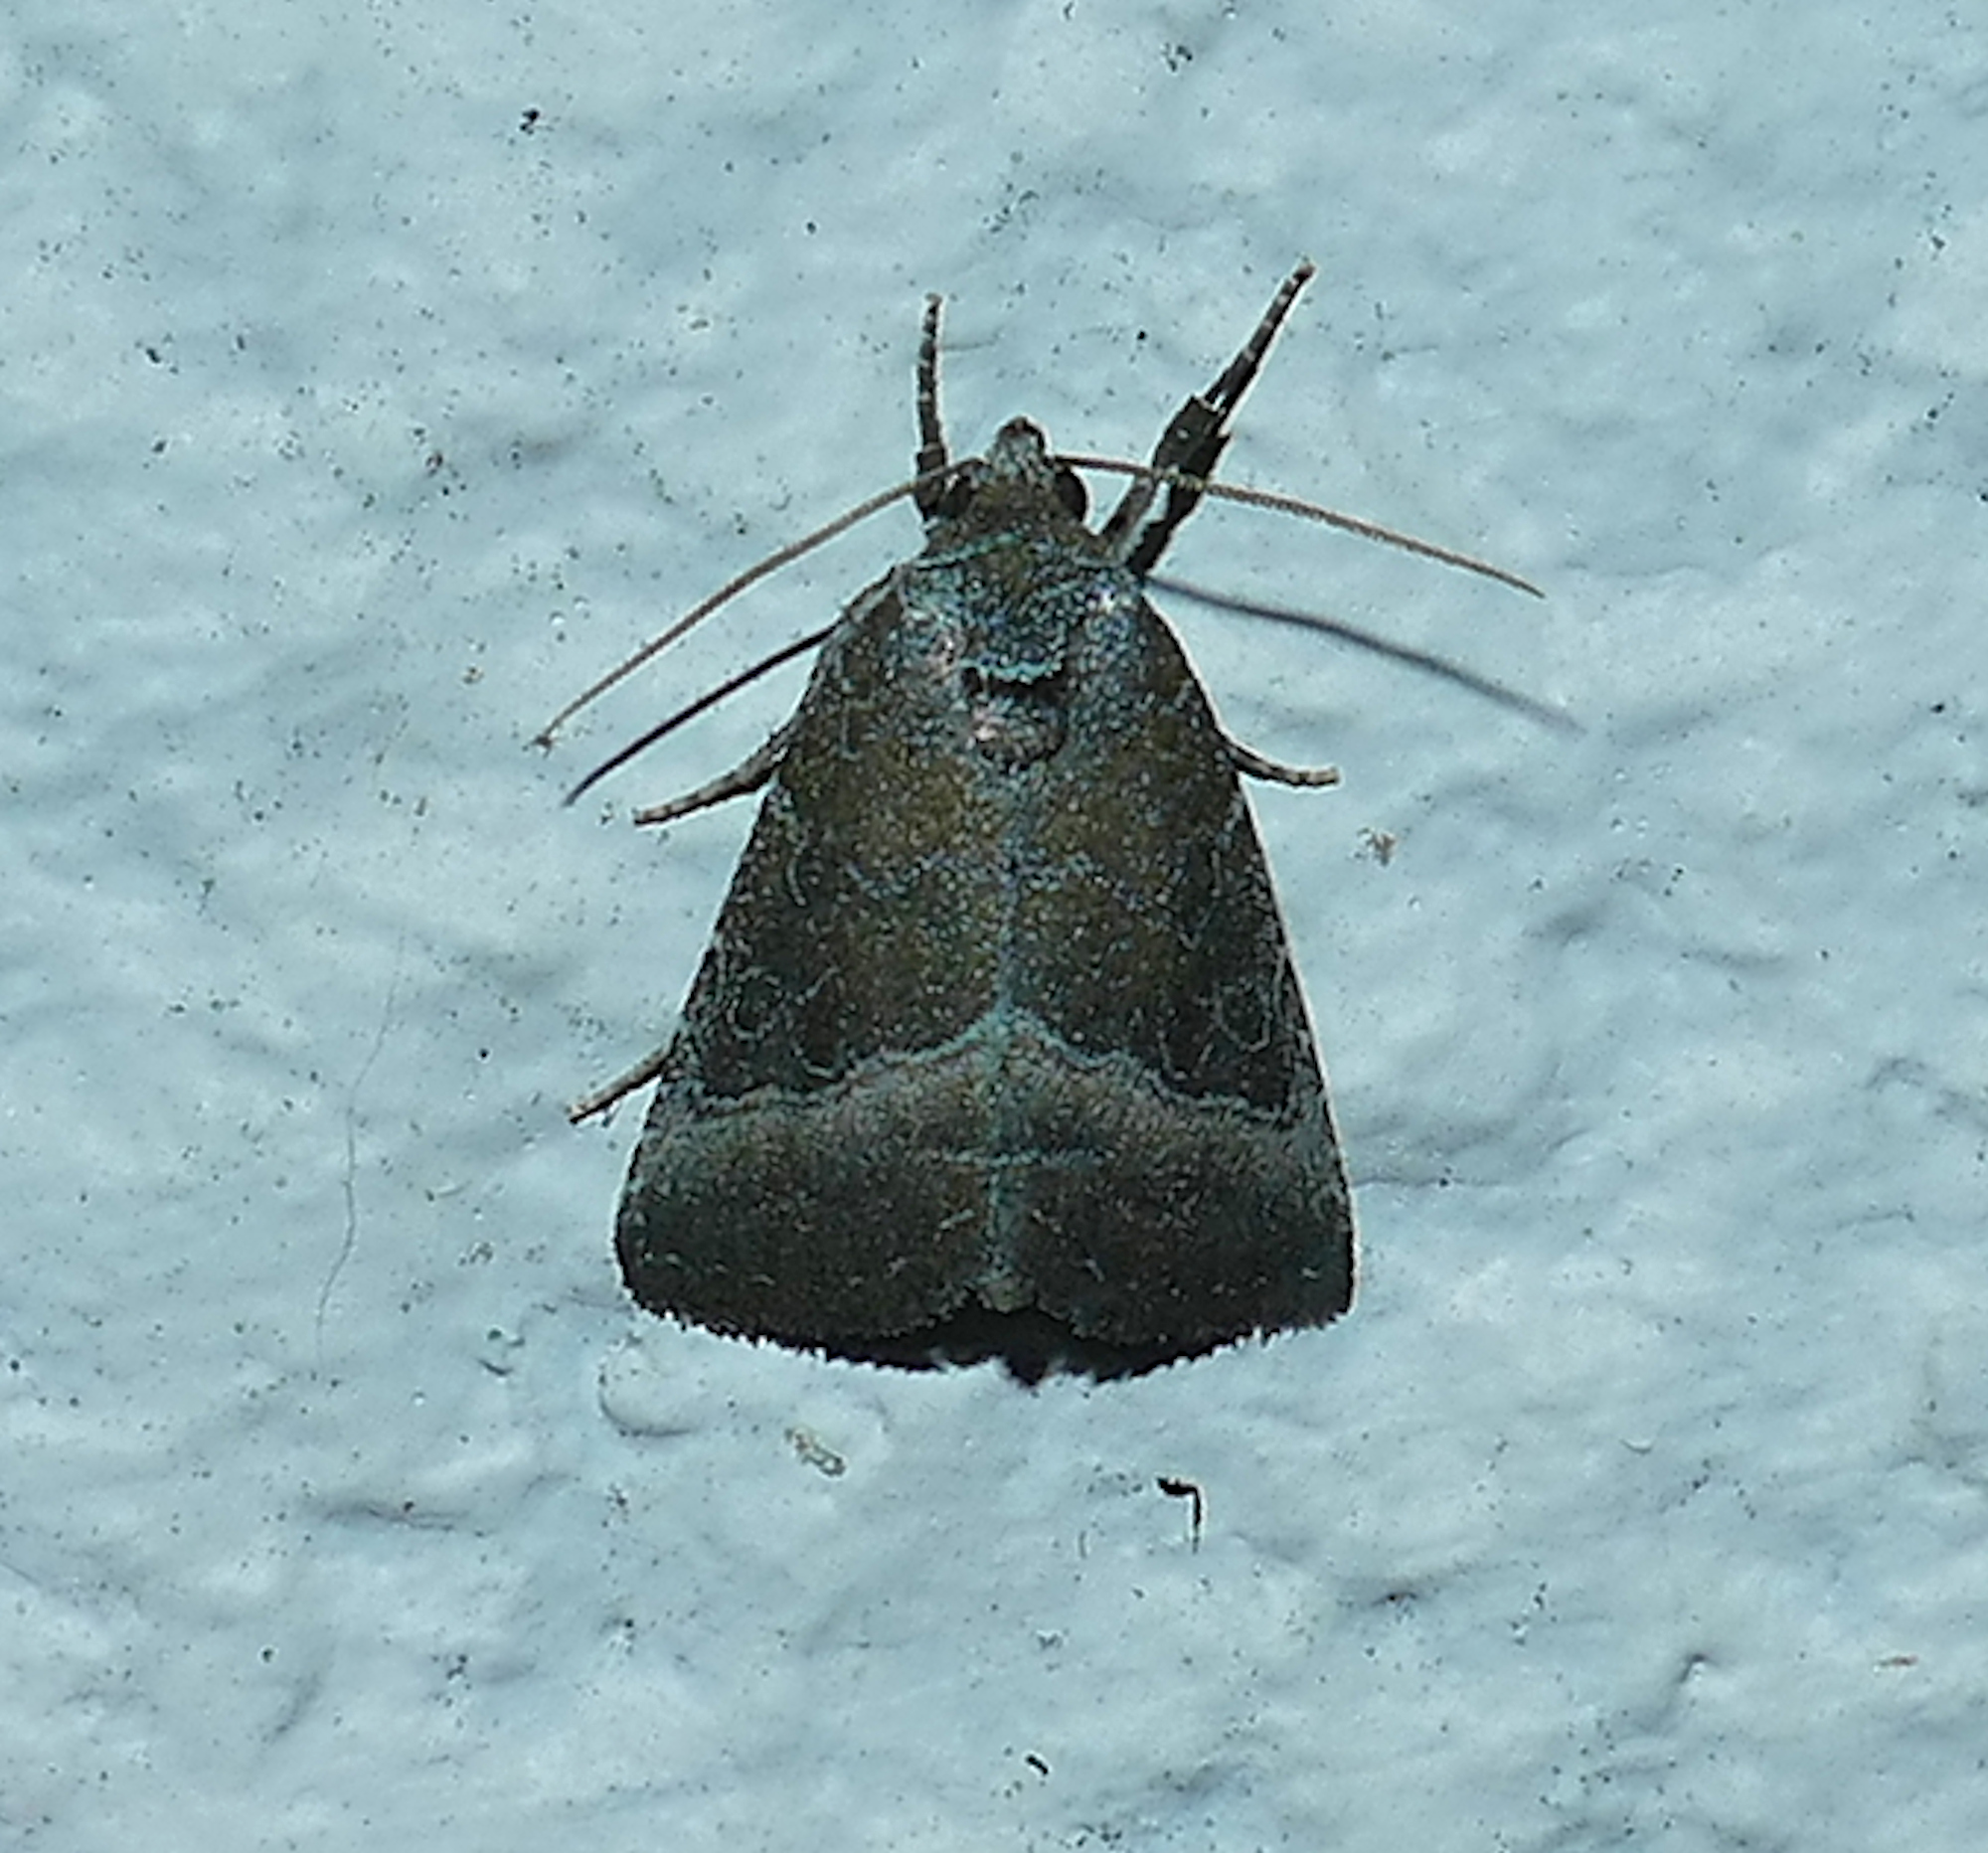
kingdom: Animalia
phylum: Arthropoda
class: Insecta
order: Lepidoptera
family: Noctuidae
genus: Ogdoconta
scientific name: Ogdoconta cinereola
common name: Common pinkband
